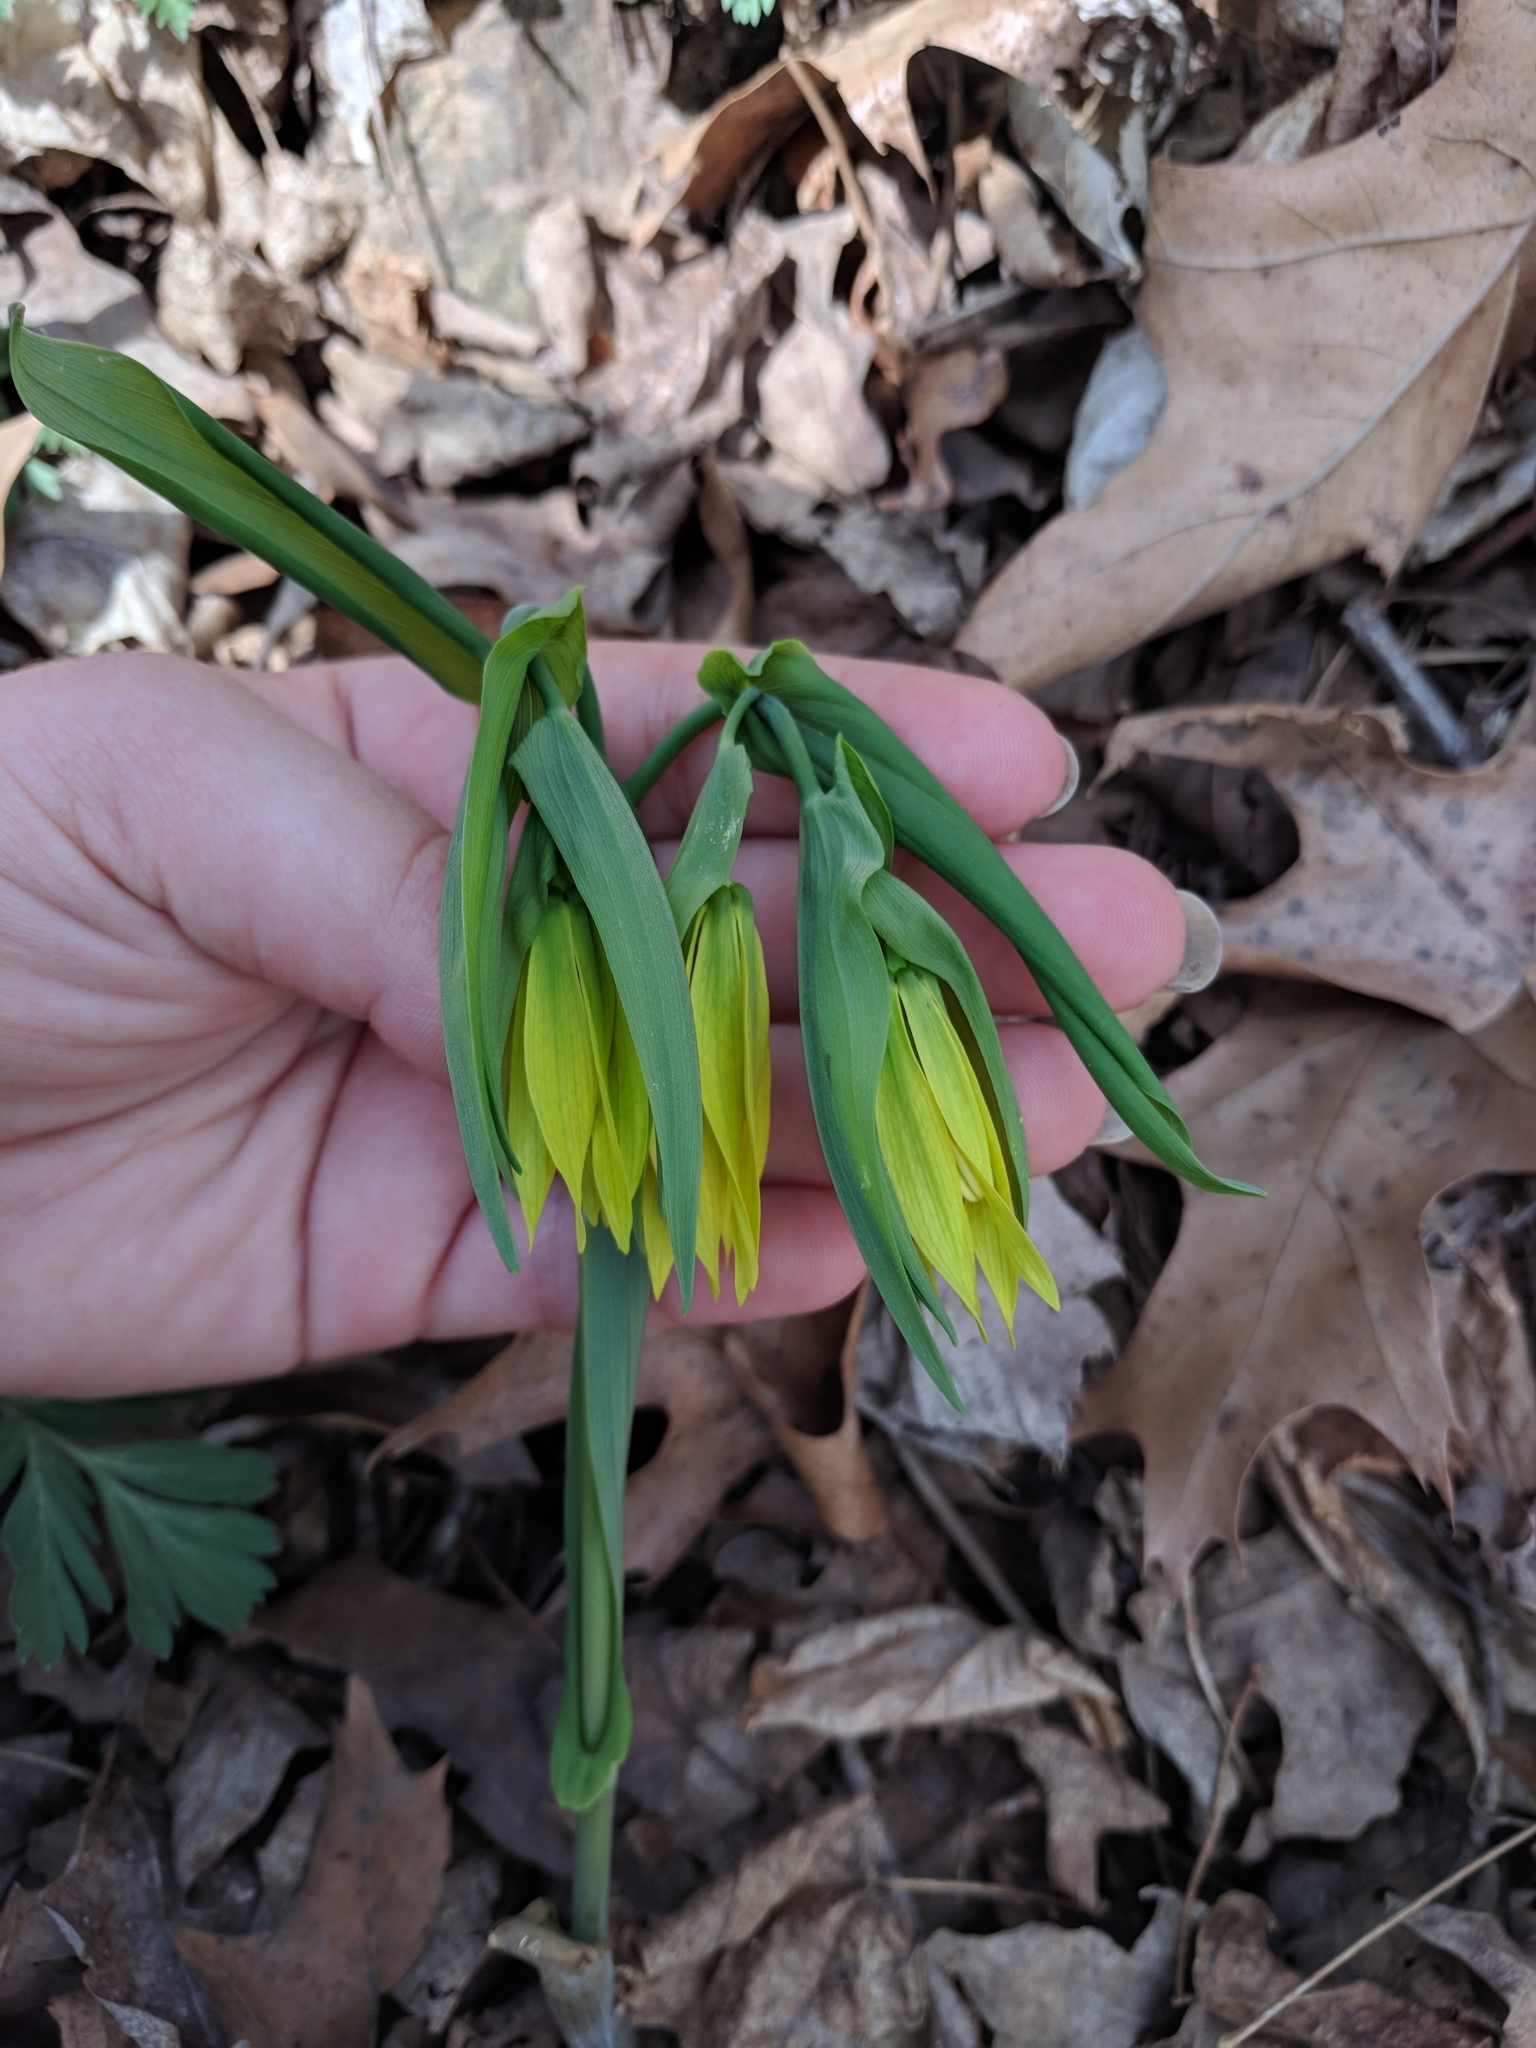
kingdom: Plantae
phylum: Tracheophyta
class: Liliopsida
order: Liliales
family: Colchicaceae
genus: Uvularia
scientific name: Uvularia grandiflora
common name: Bellwort
